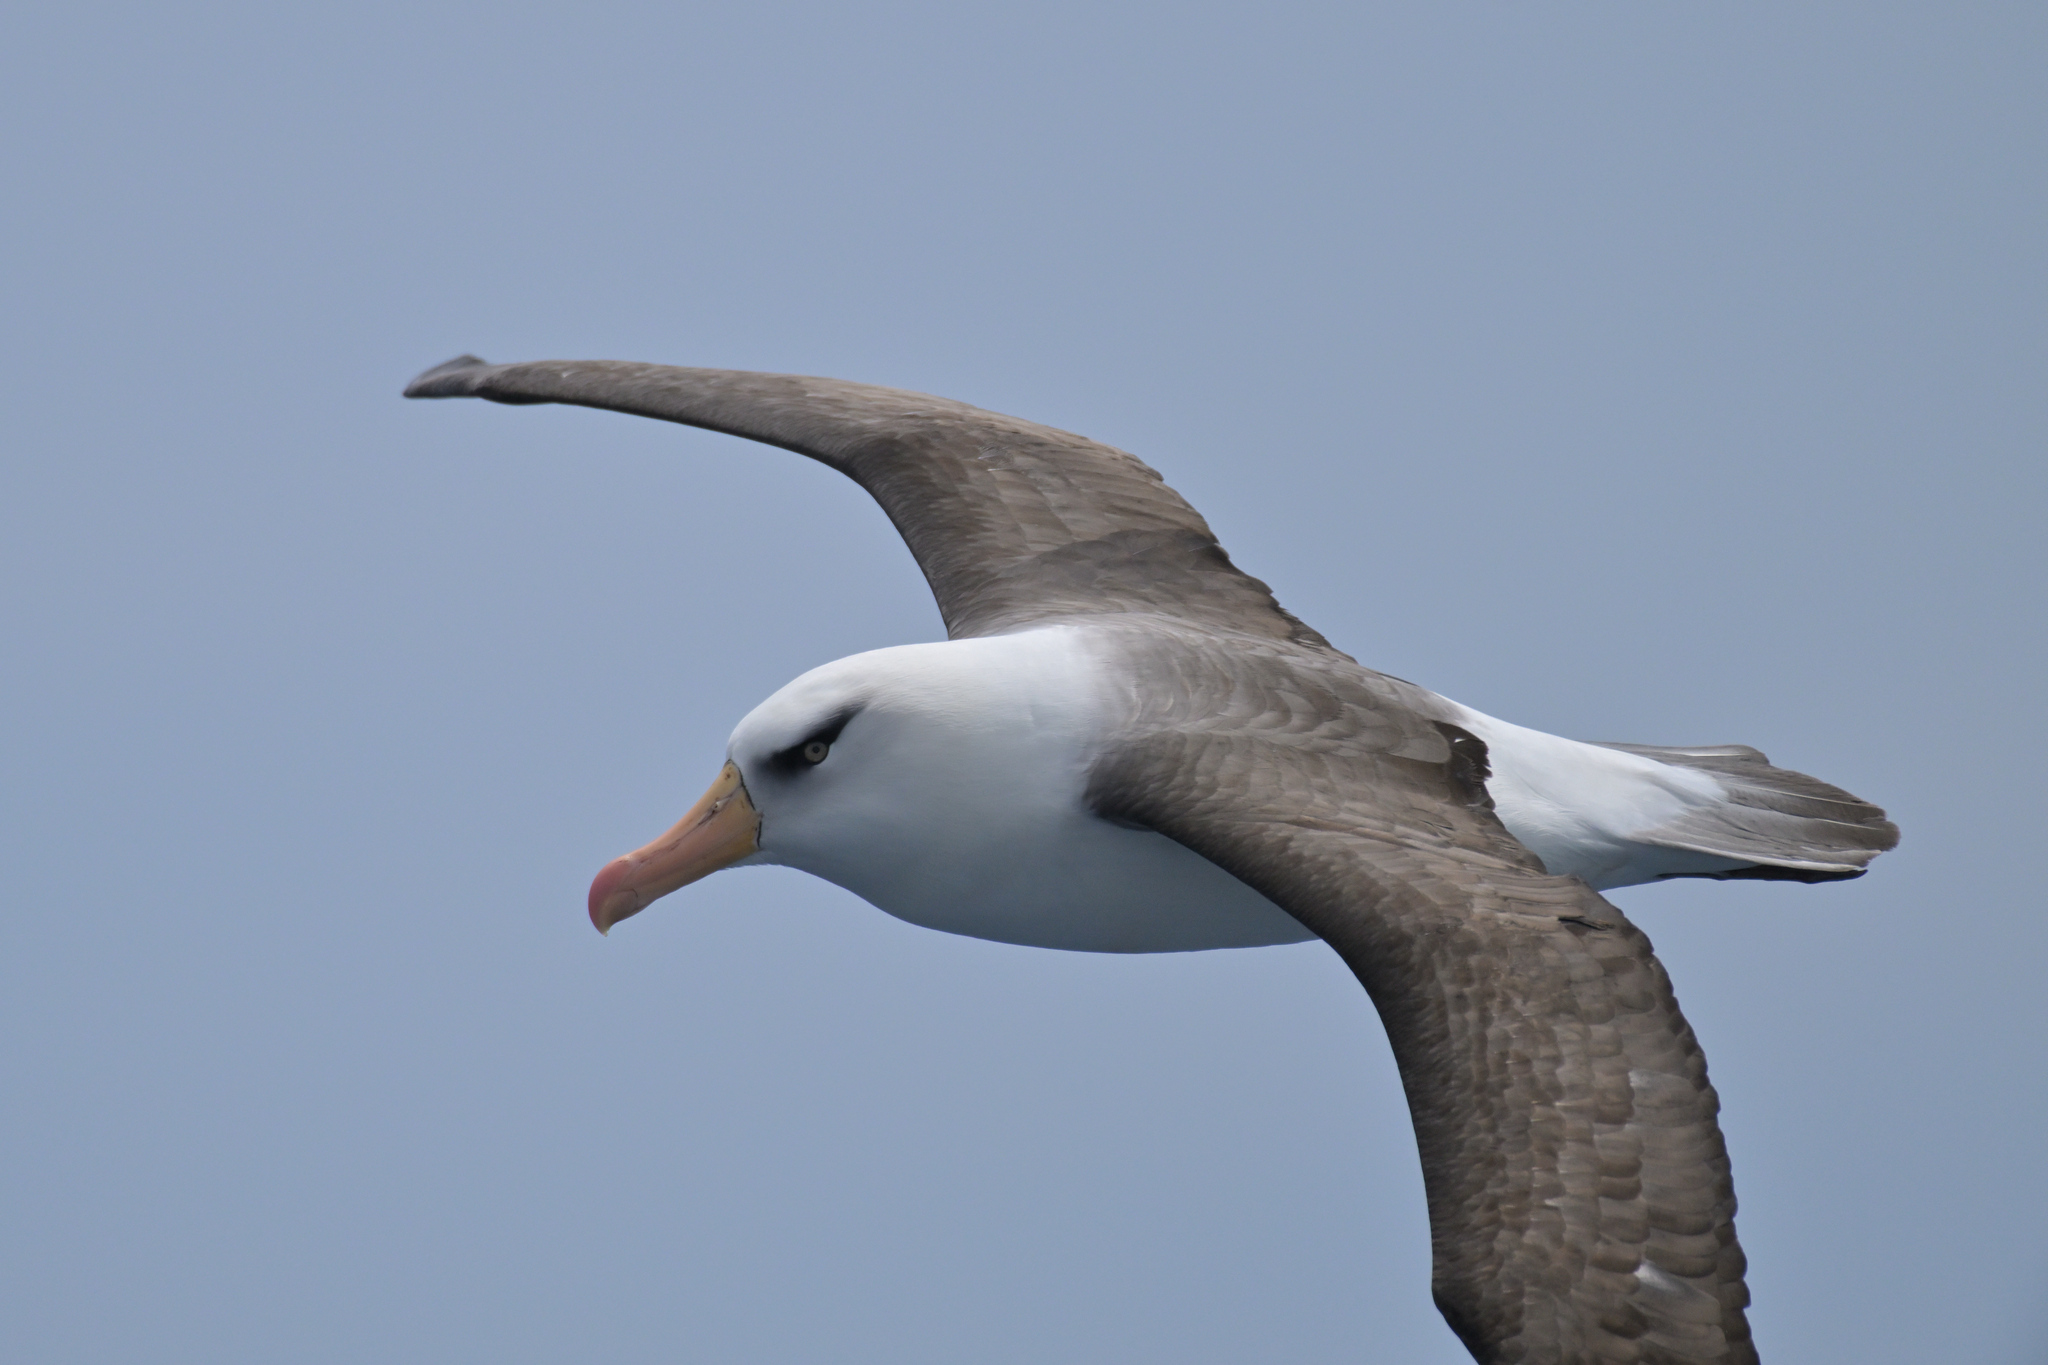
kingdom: Animalia
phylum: Chordata
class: Aves
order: Procellariiformes
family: Diomedeidae
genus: Thalassarche
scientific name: Thalassarche impavida
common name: Campbell albatross
